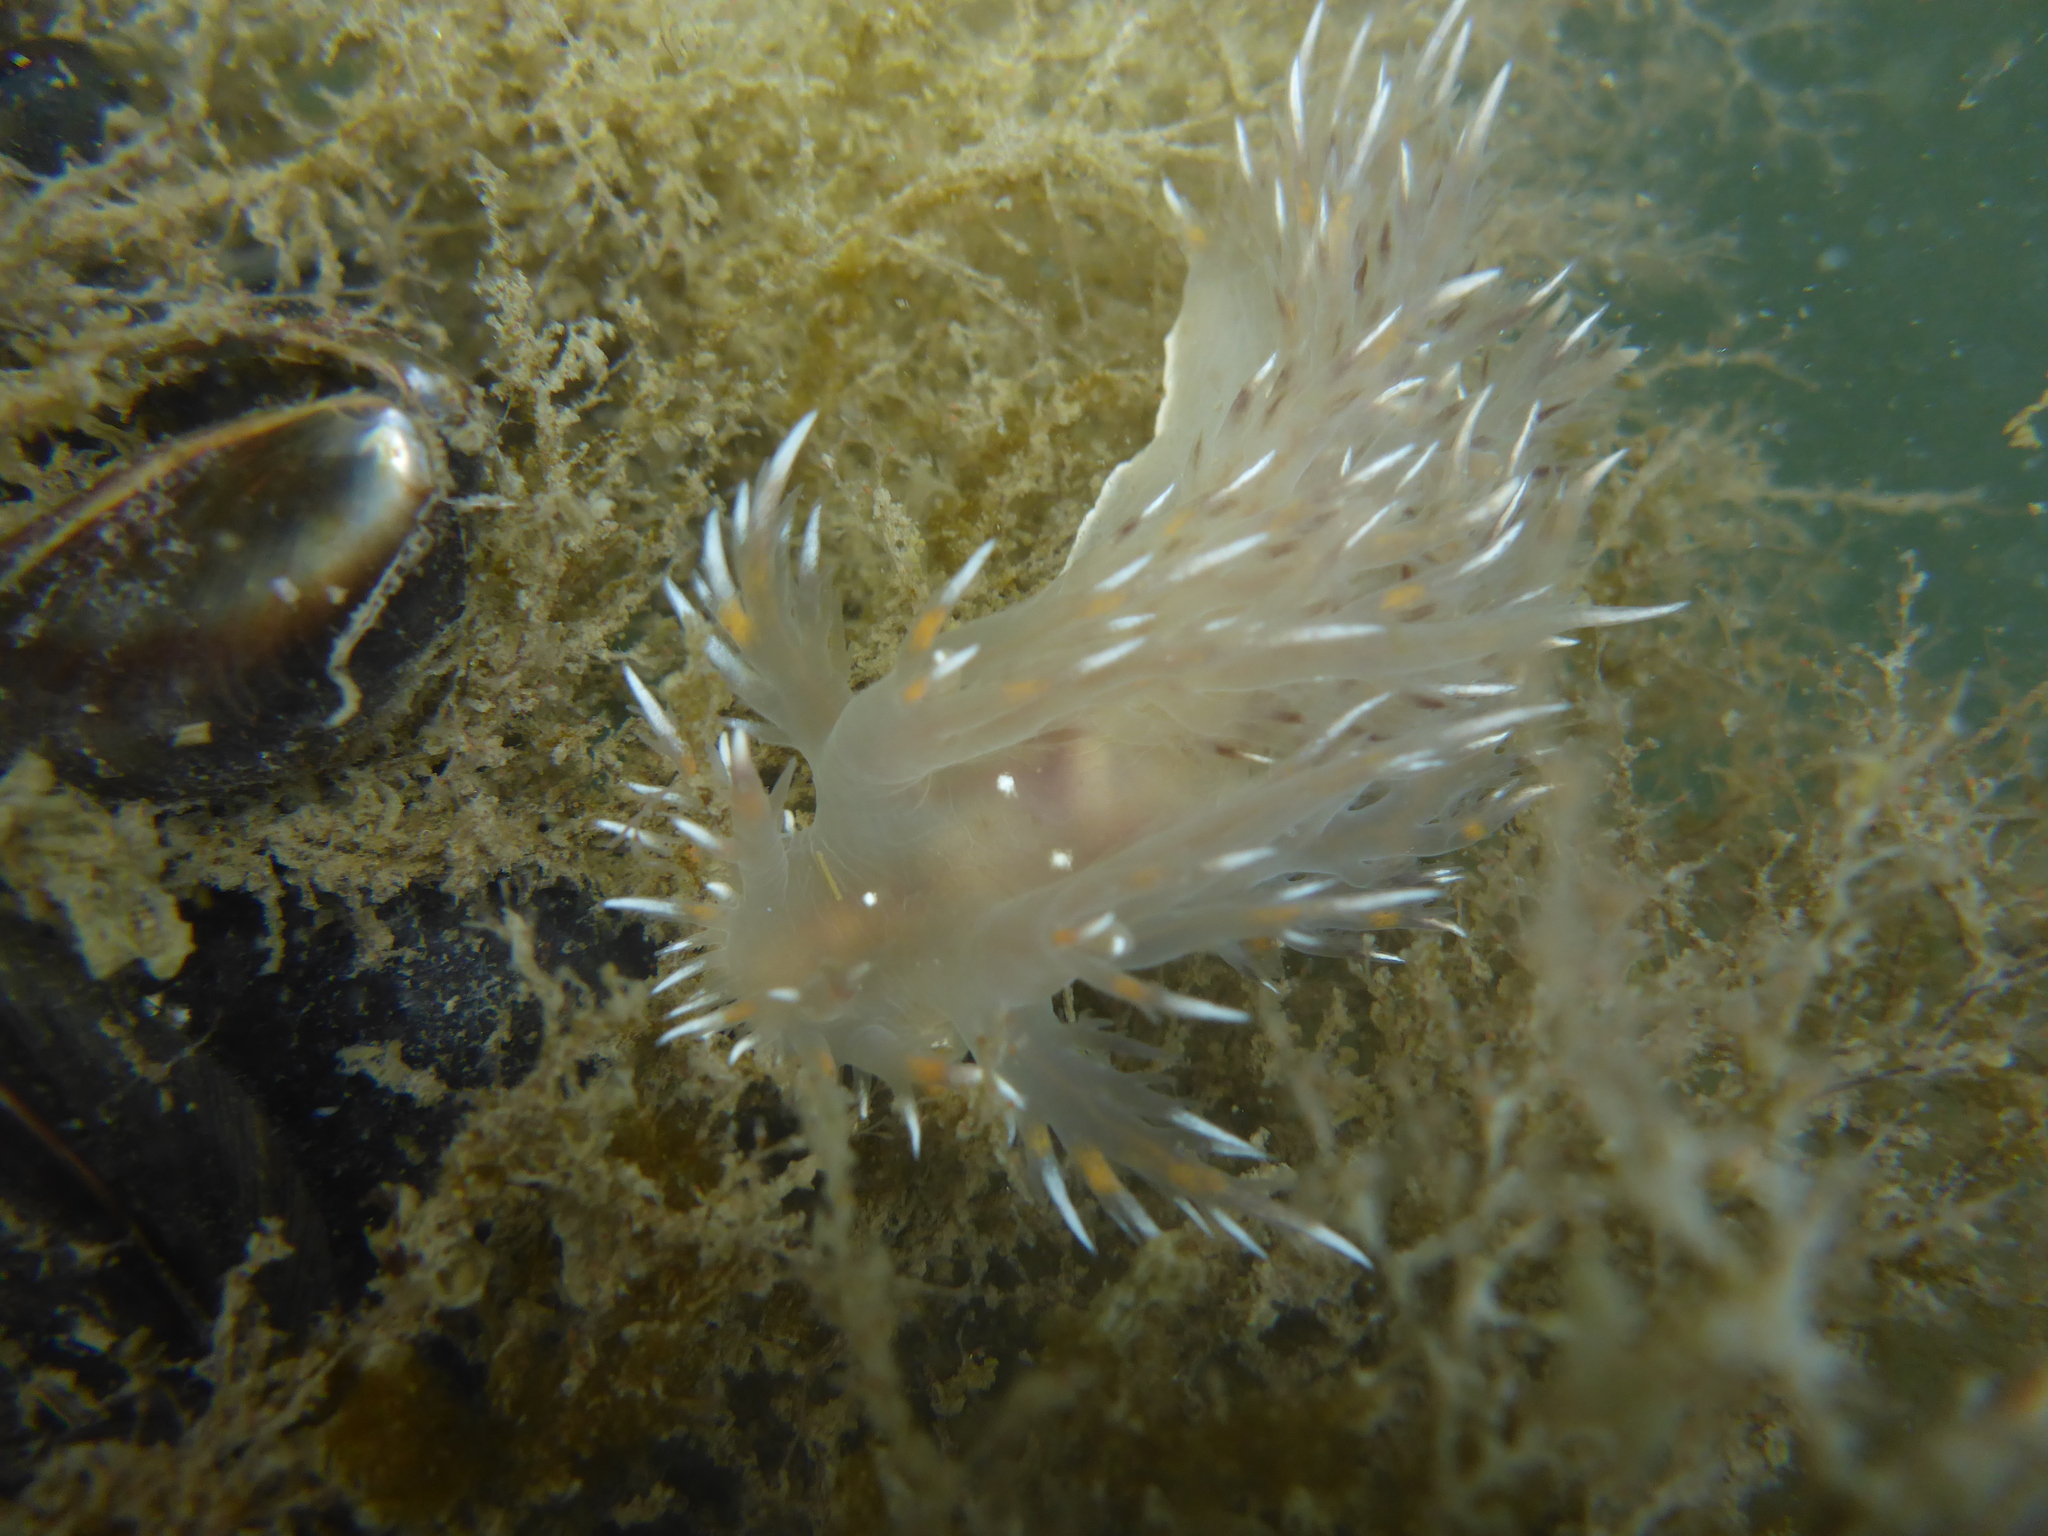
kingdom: Animalia
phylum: Mollusca
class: Gastropoda
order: Nudibranchia
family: Dendronotidae
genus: Dendronotus
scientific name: Dendronotus iris
